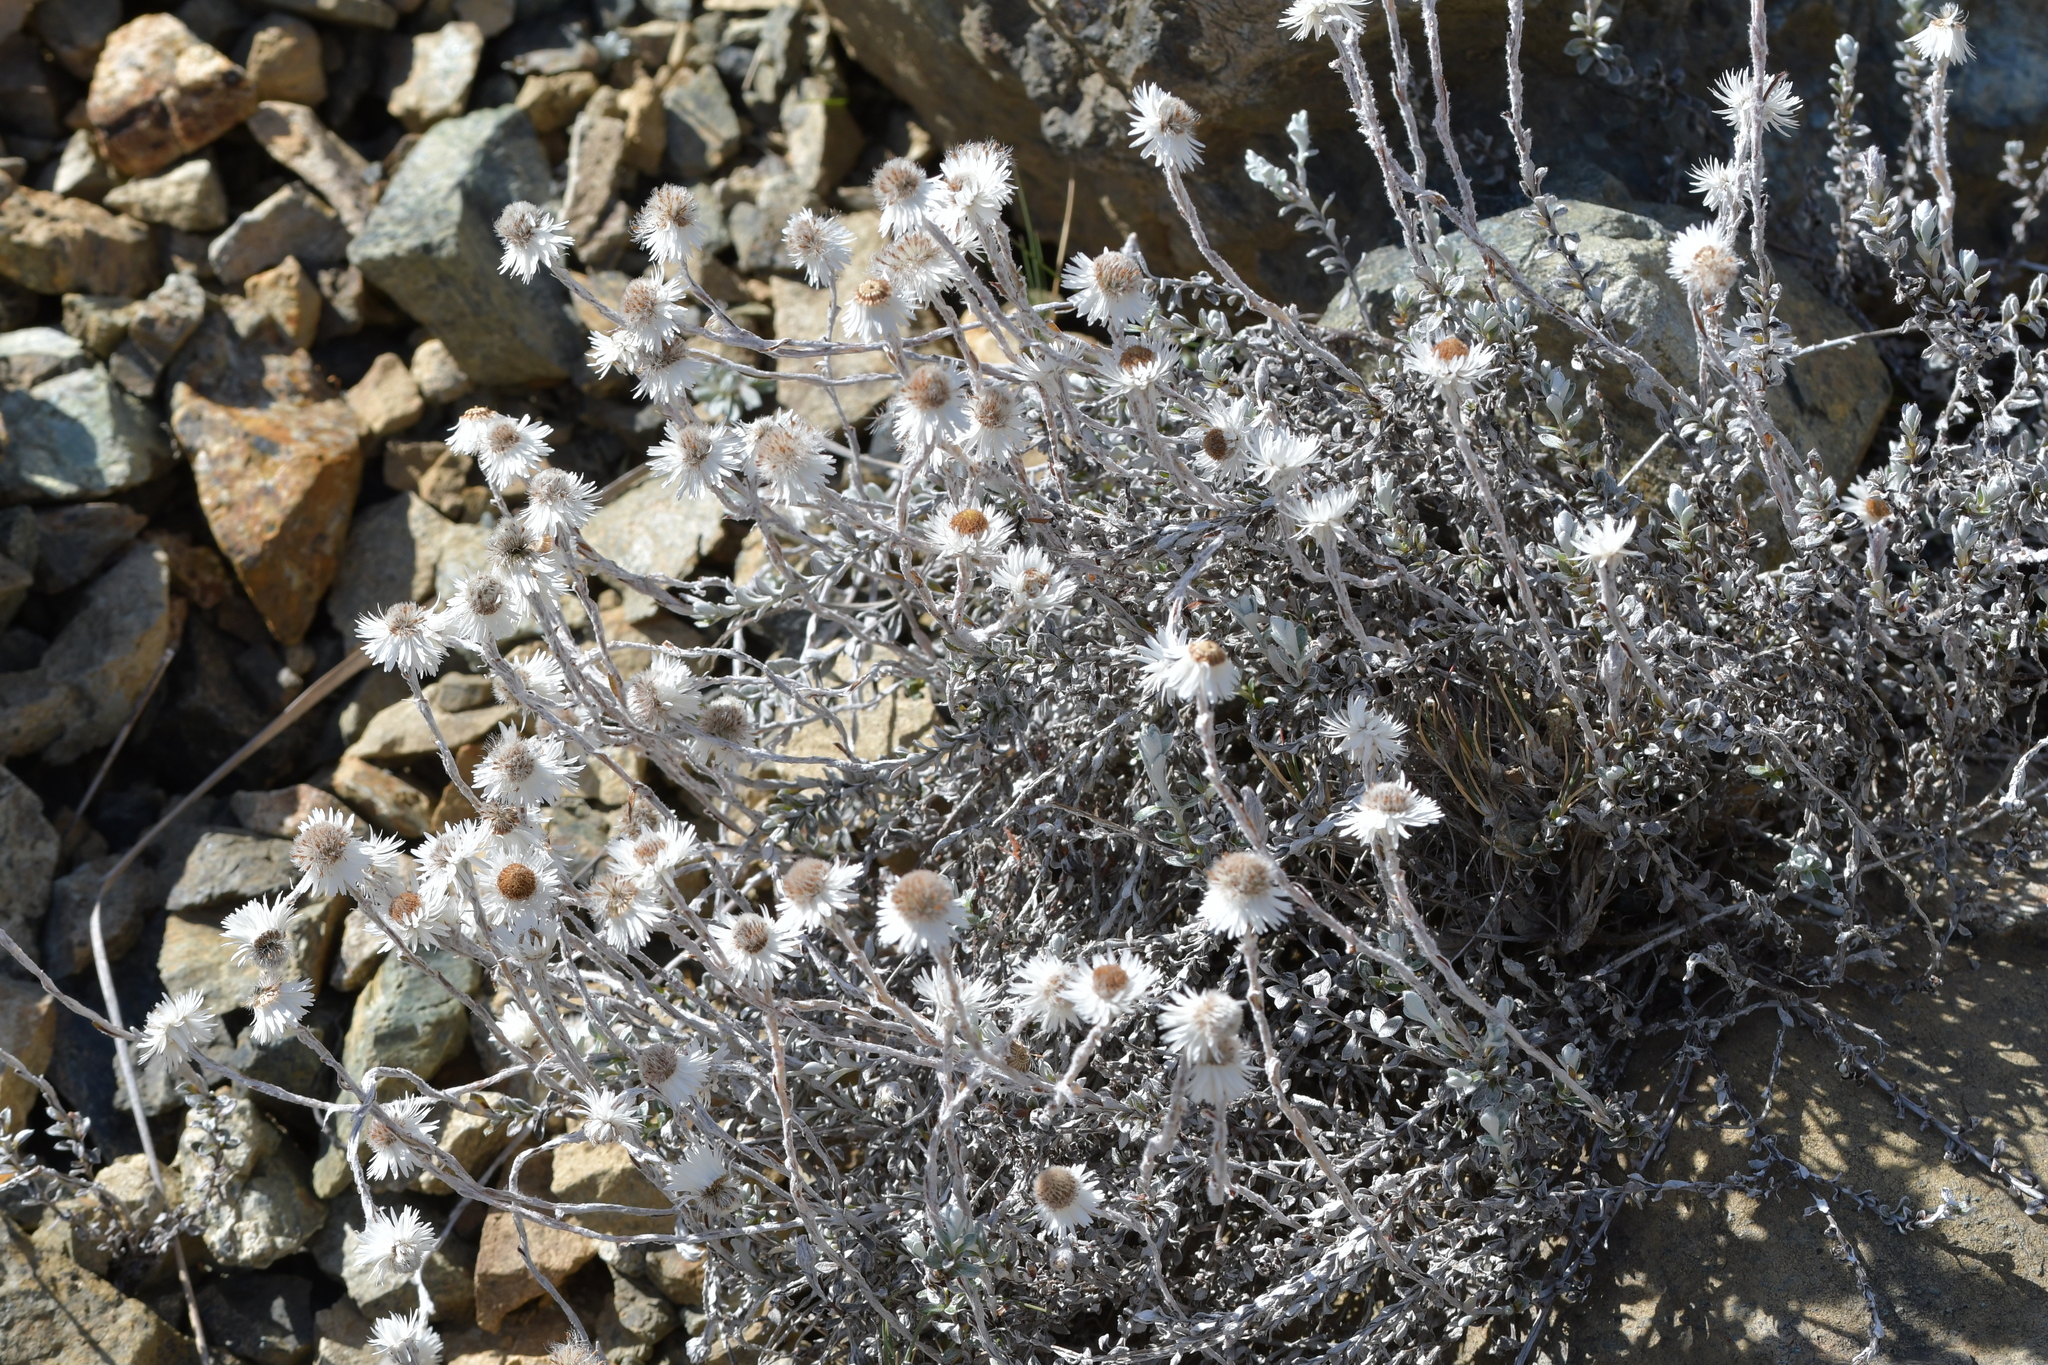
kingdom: Plantae
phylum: Tracheophyta
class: Magnoliopsida
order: Asterales
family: Asteraceae
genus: Anaphalioides
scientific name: Anaphalioides bellidioides
